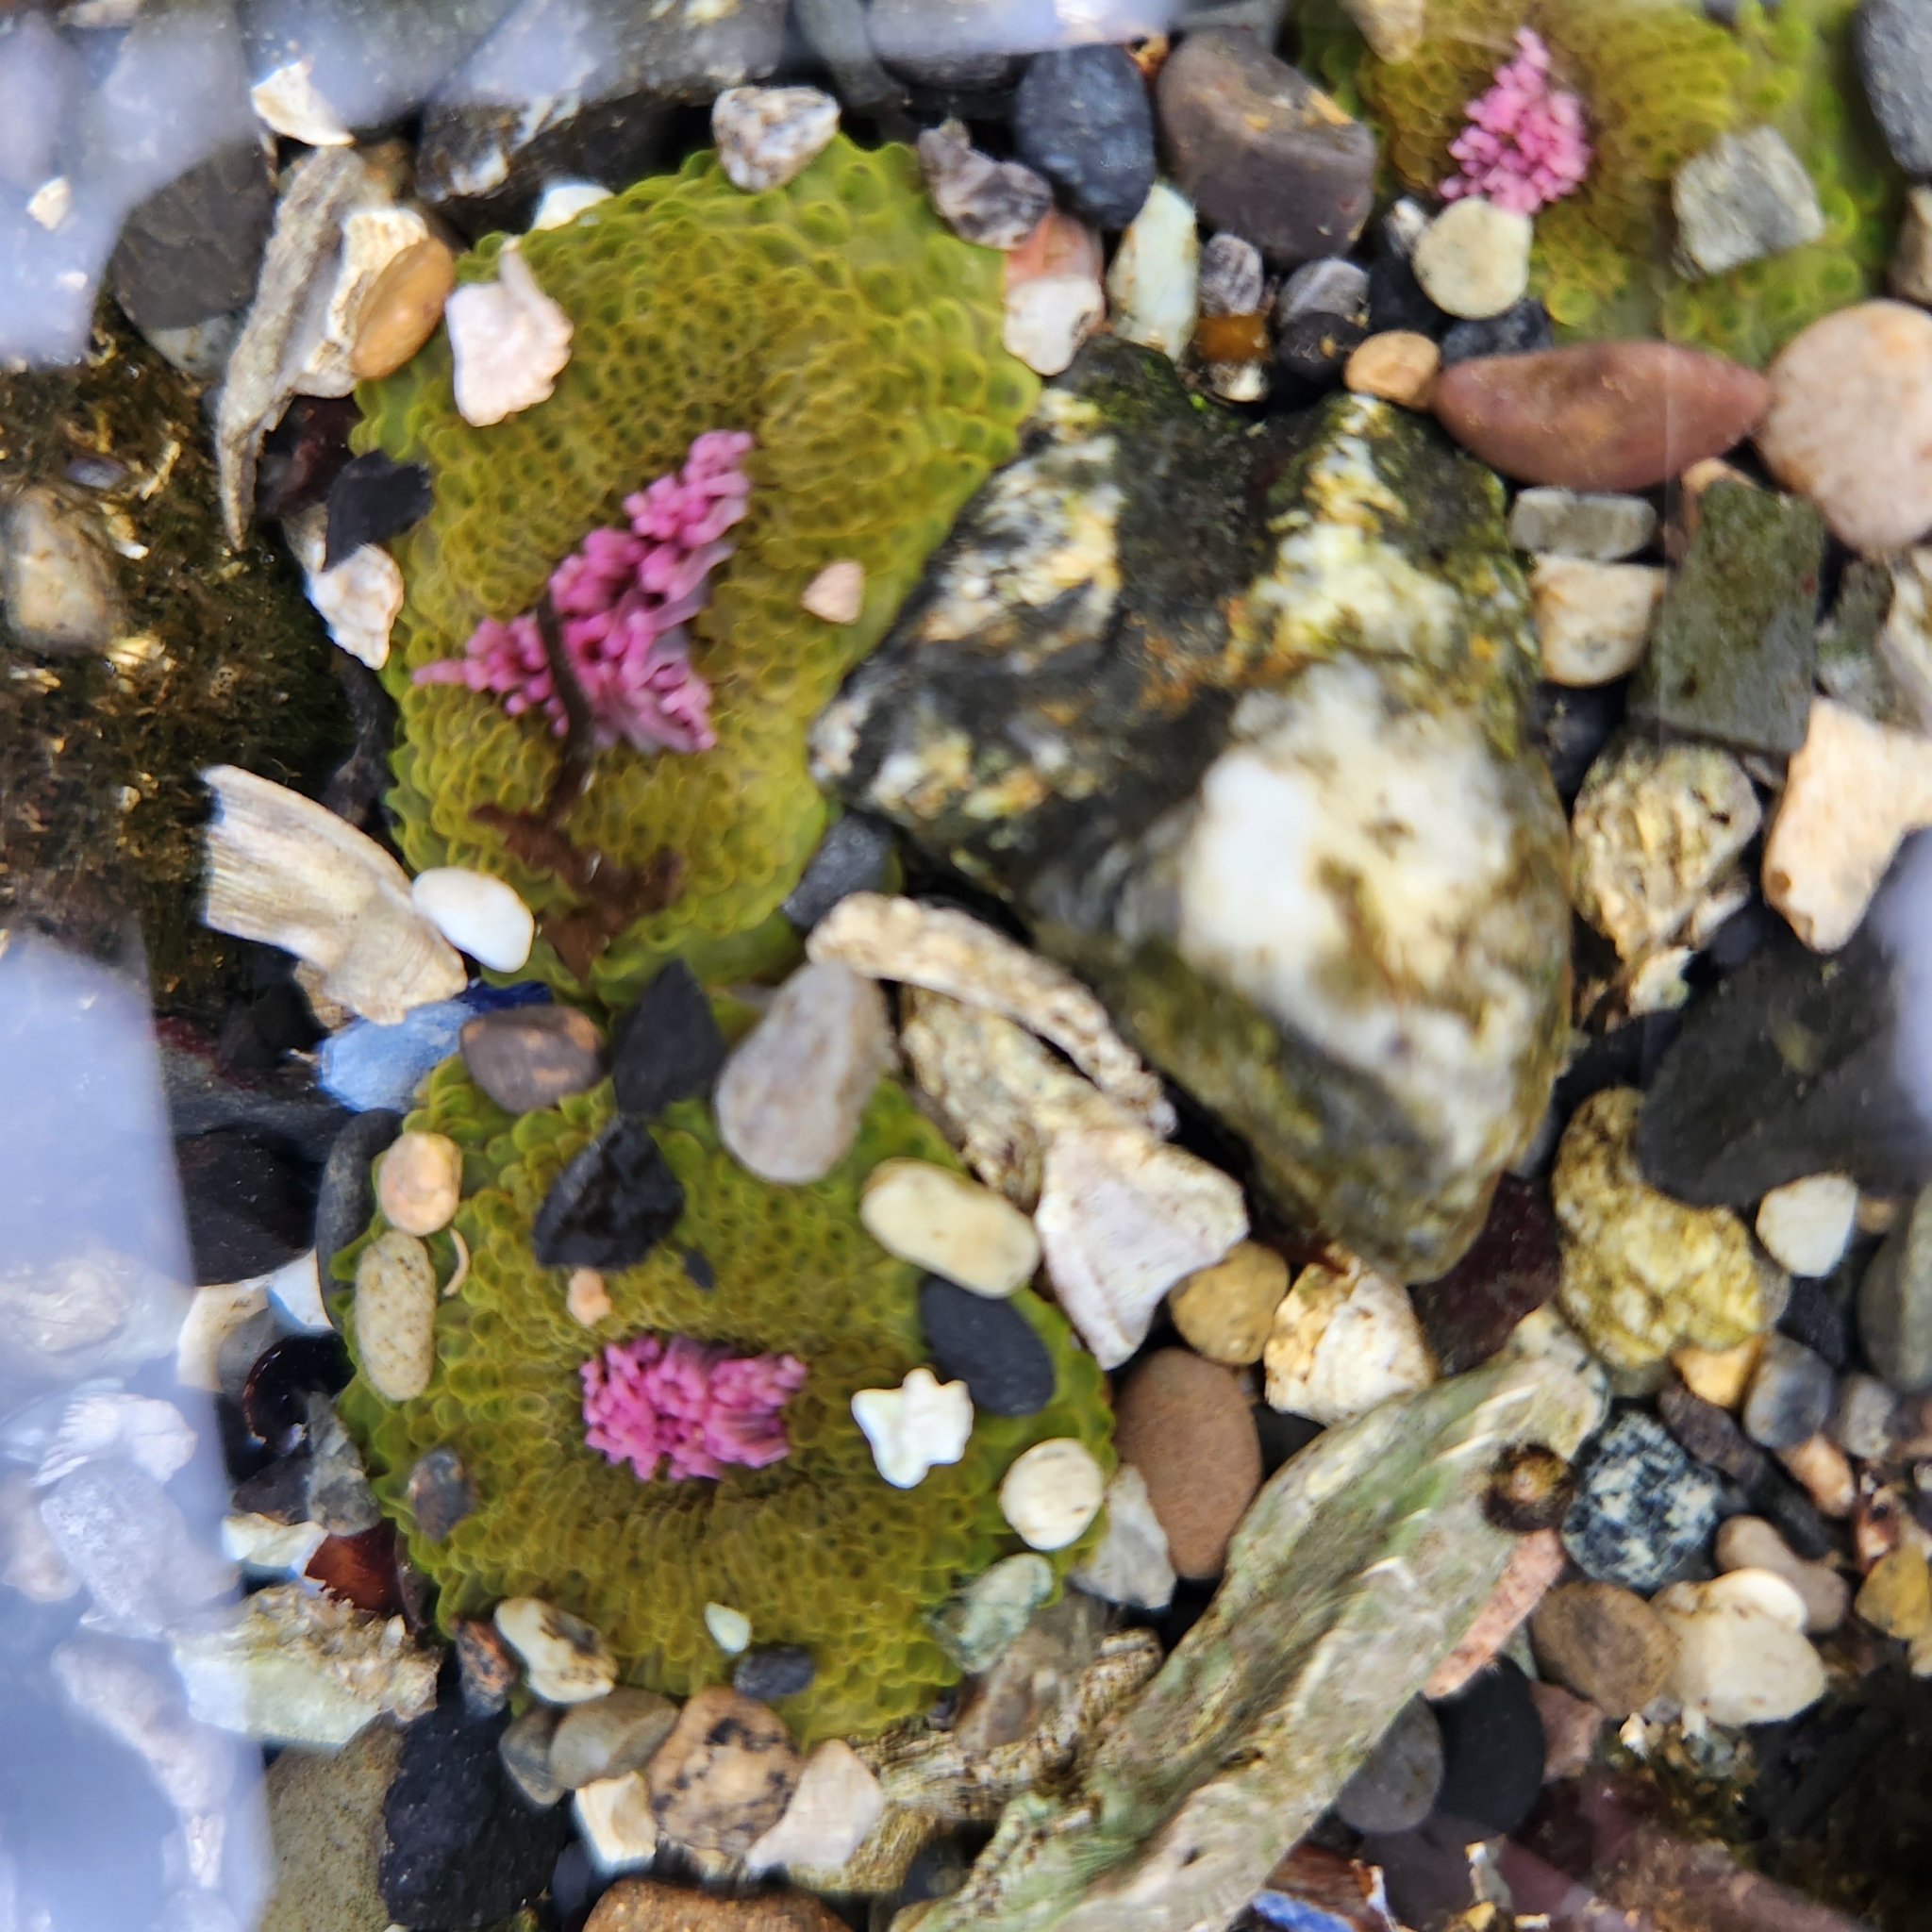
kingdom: Animalia
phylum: Cnidaria
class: Anthozoa
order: Actiniaria
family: Actiniidae
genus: Anthopleura
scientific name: Anthopleura elegantissima
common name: Clonal anemone
